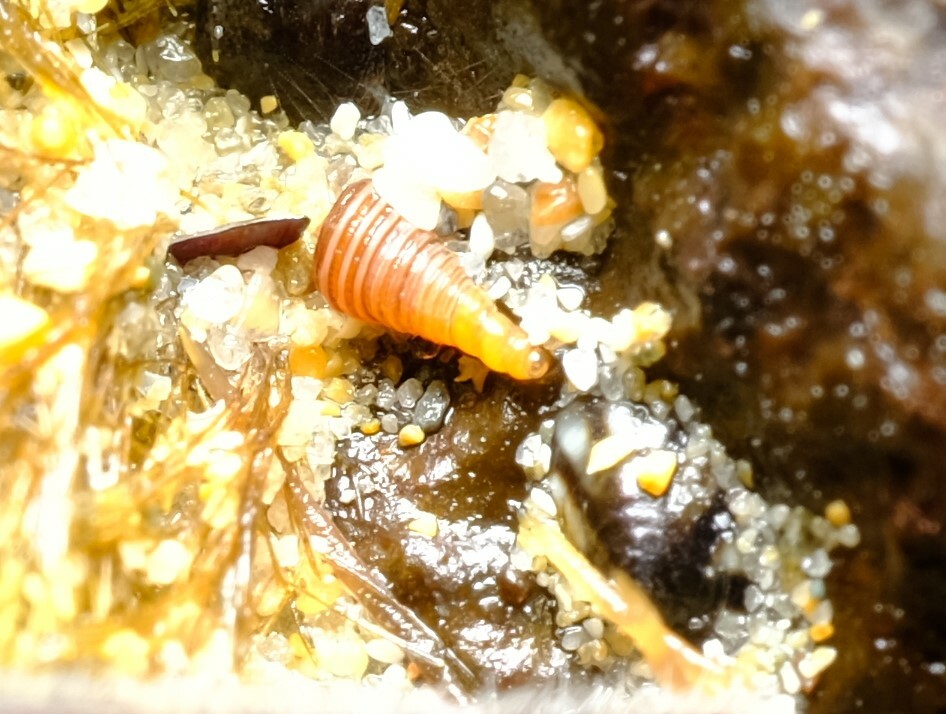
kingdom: Animalia
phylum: Mollusca
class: Gastropoda
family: Cerithiopsidae
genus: Seila
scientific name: Seila crocea
